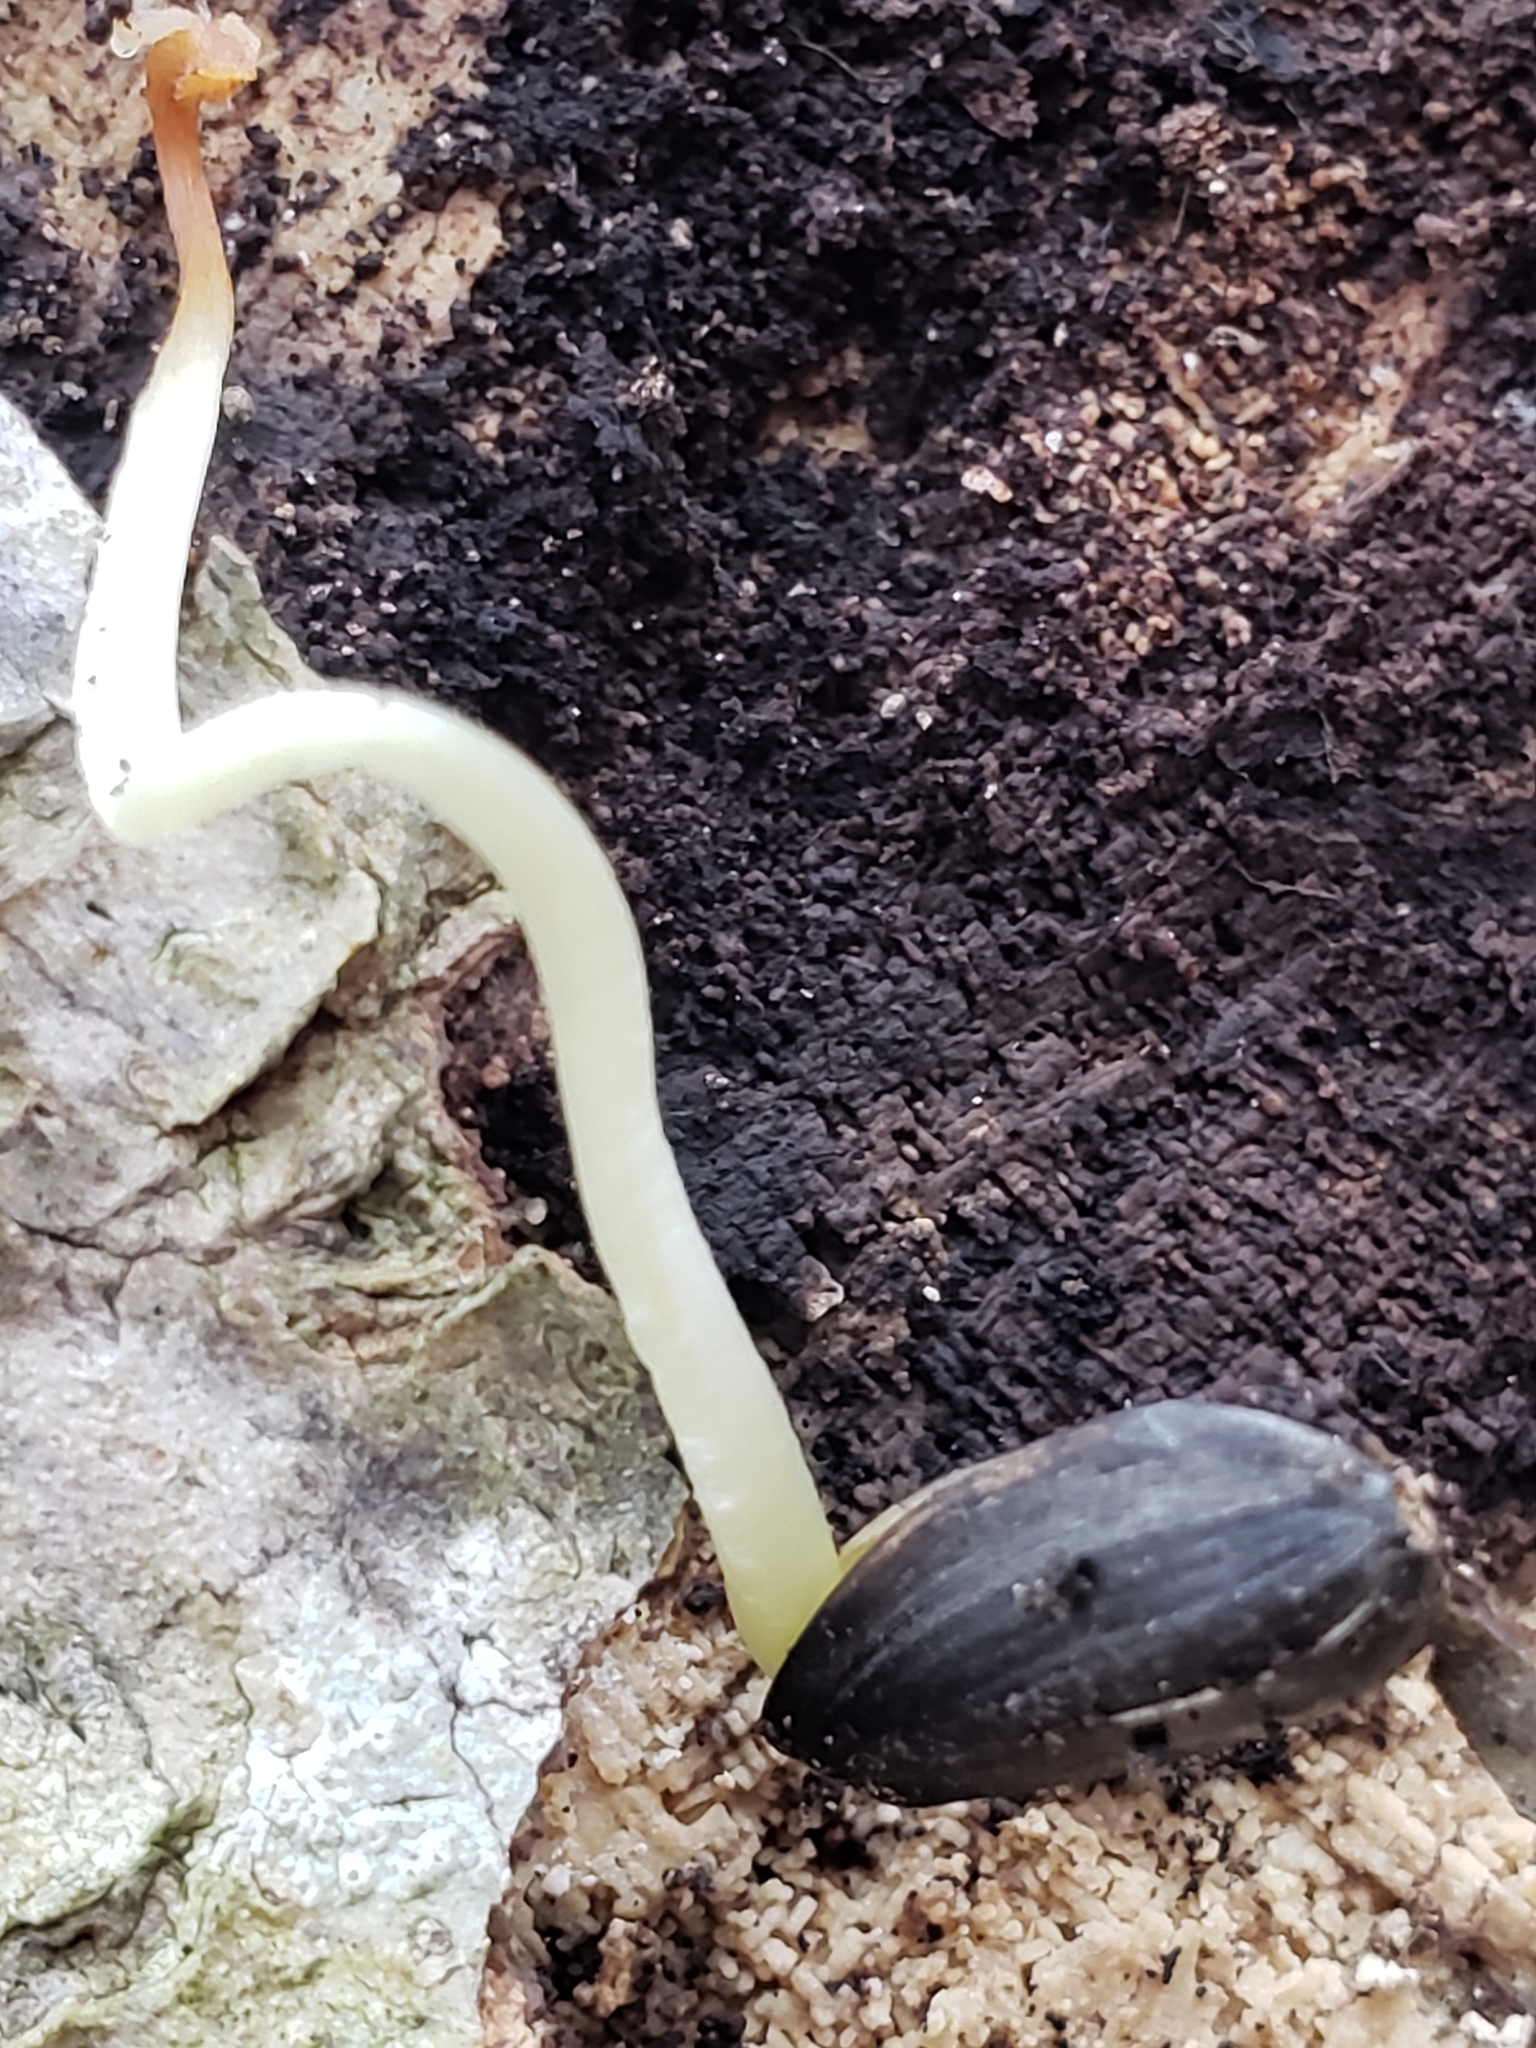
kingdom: Plantae
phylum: Tracheophyta
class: Magnoliopsida
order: Asterales
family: Asteraceae
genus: Helianthus
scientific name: Helianthus annuus
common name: Sunflower
